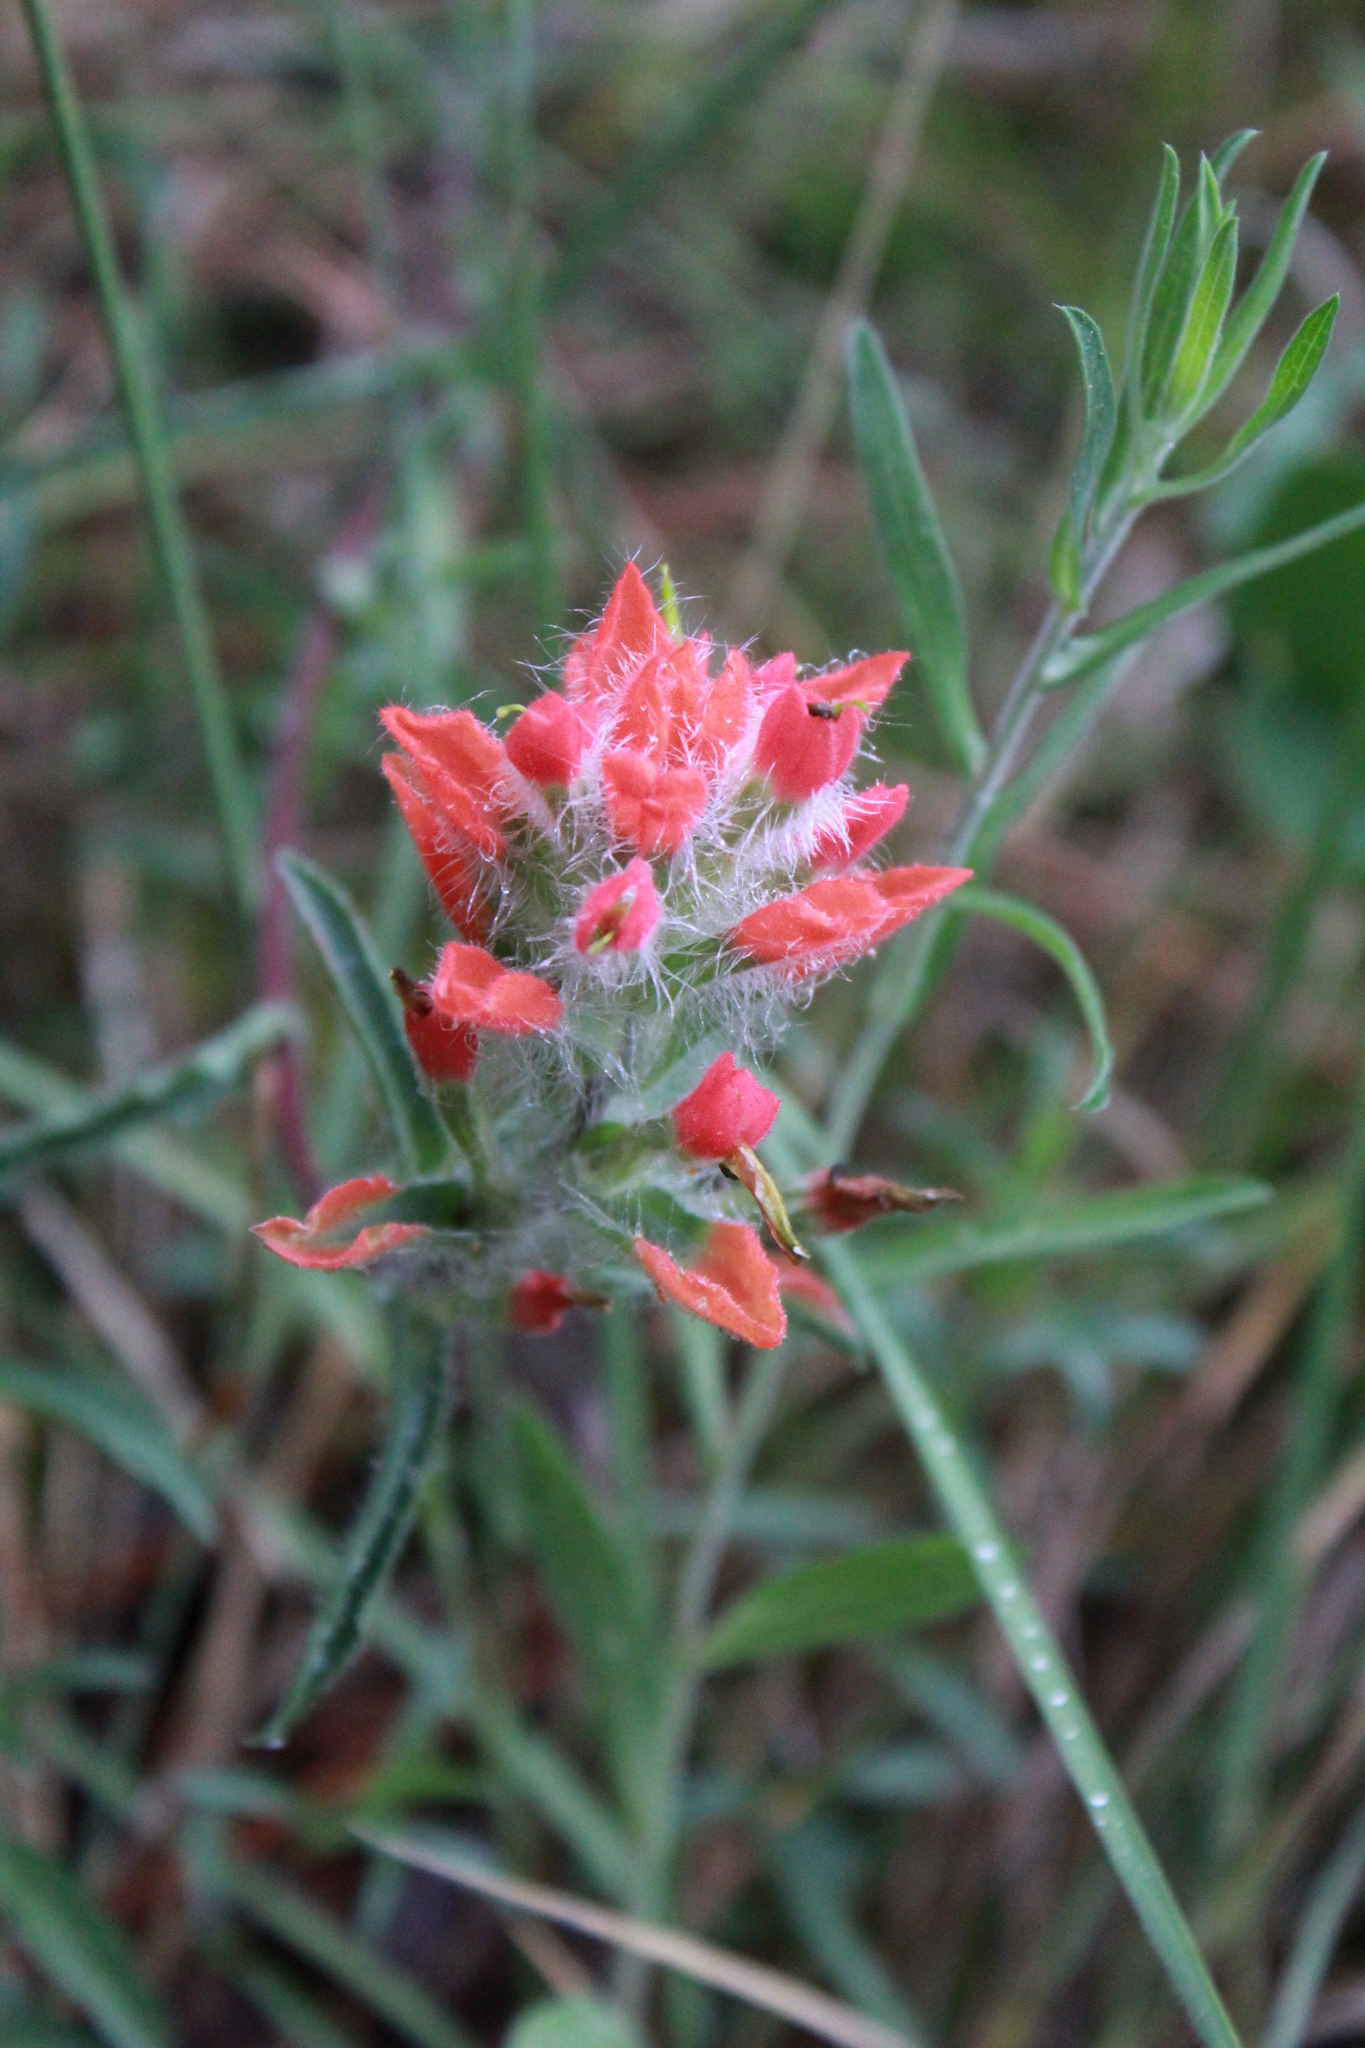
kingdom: Plantae
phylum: Tracheophyta
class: Magnoliopsida
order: Lamiales
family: Orobanchaceae
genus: Castilleja
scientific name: Castilleja scorzonerifolia
